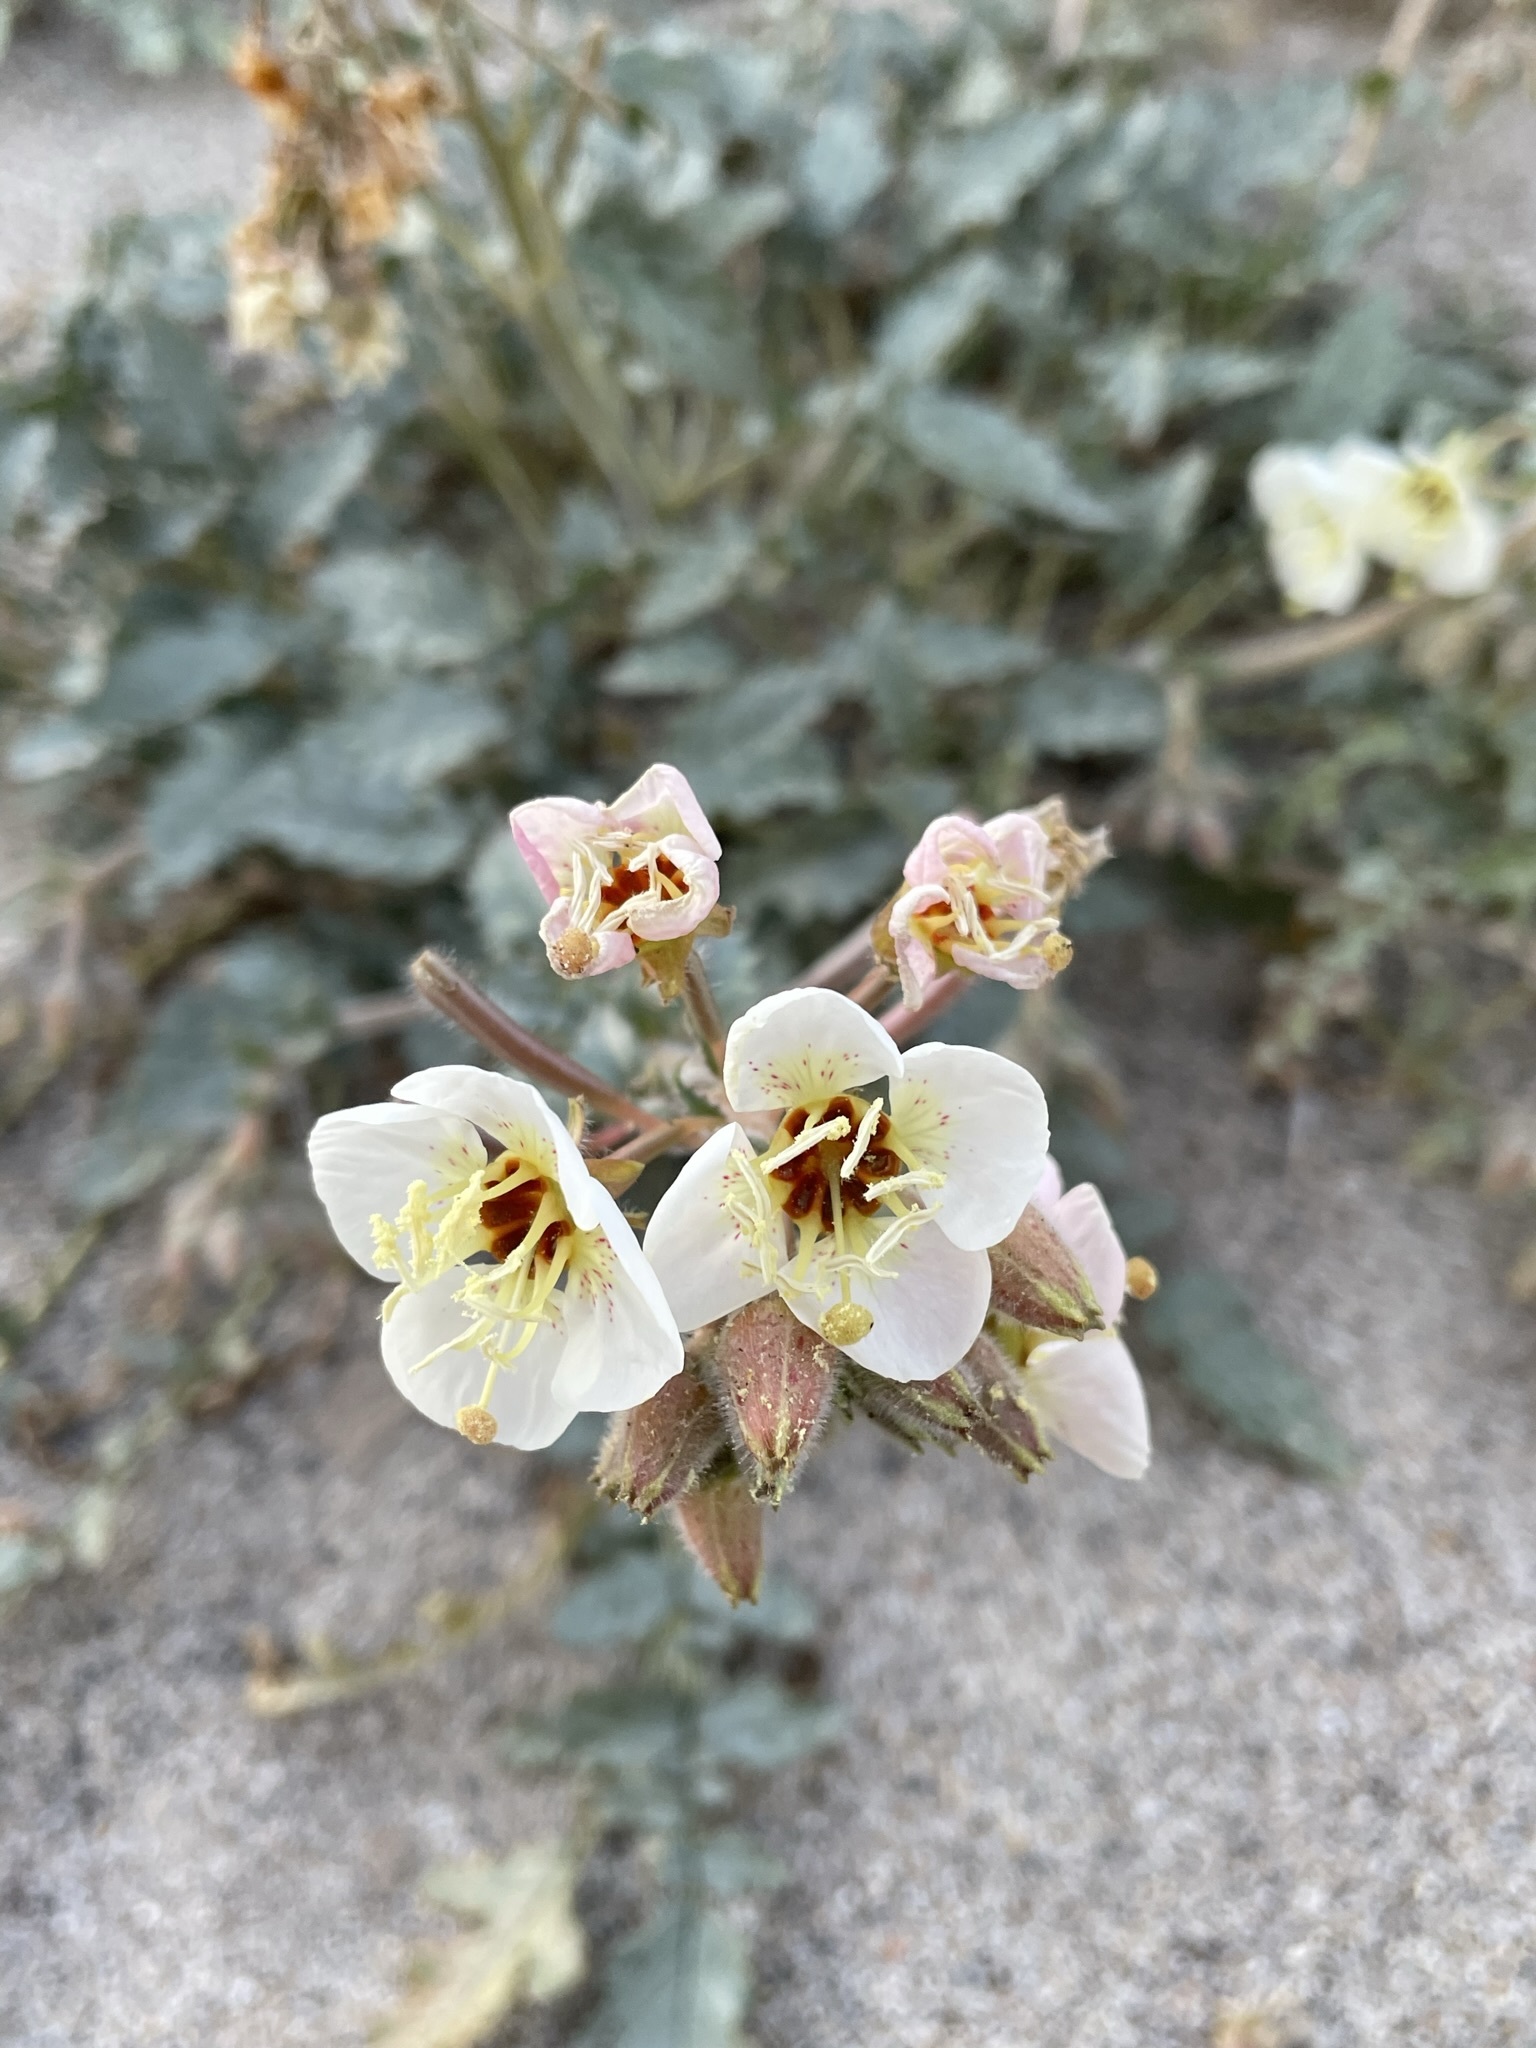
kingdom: Plantae
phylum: Tracheophyta
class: Magnoliopsida
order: Myrtales
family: Onagraceae
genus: Chylismia
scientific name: Chylismia claviformis
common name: Browneyes
